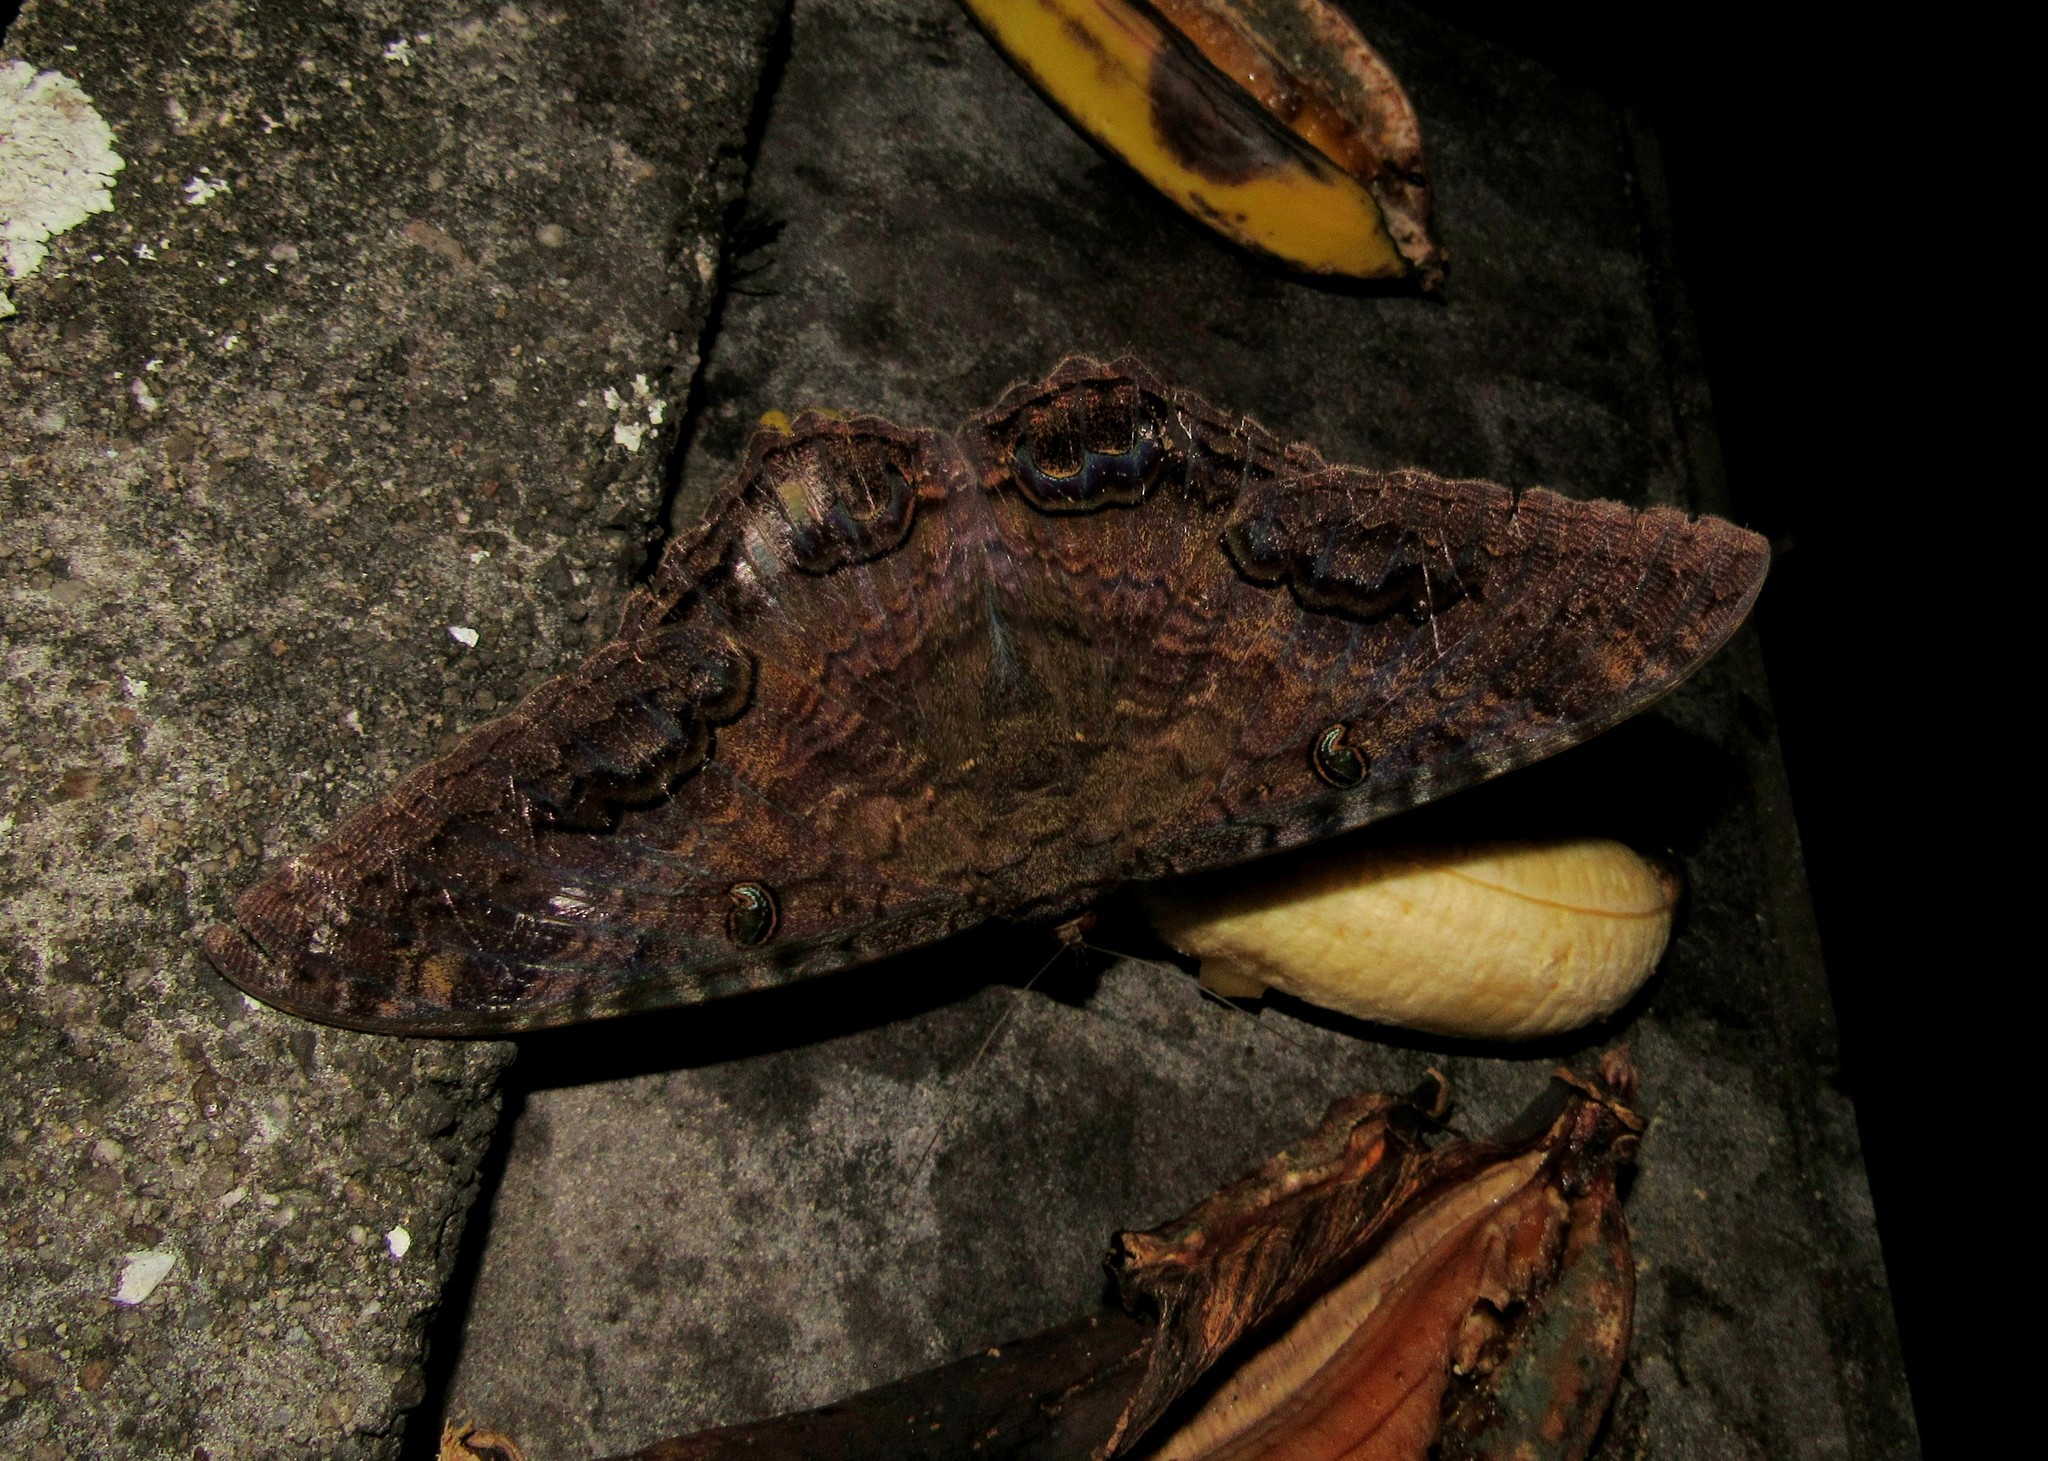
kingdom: Animalia
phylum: Arthropoda
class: Insecta
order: Lepidoptera
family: Erebidae
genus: Ascalapha
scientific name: Ascalapha odorata
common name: Black witch
